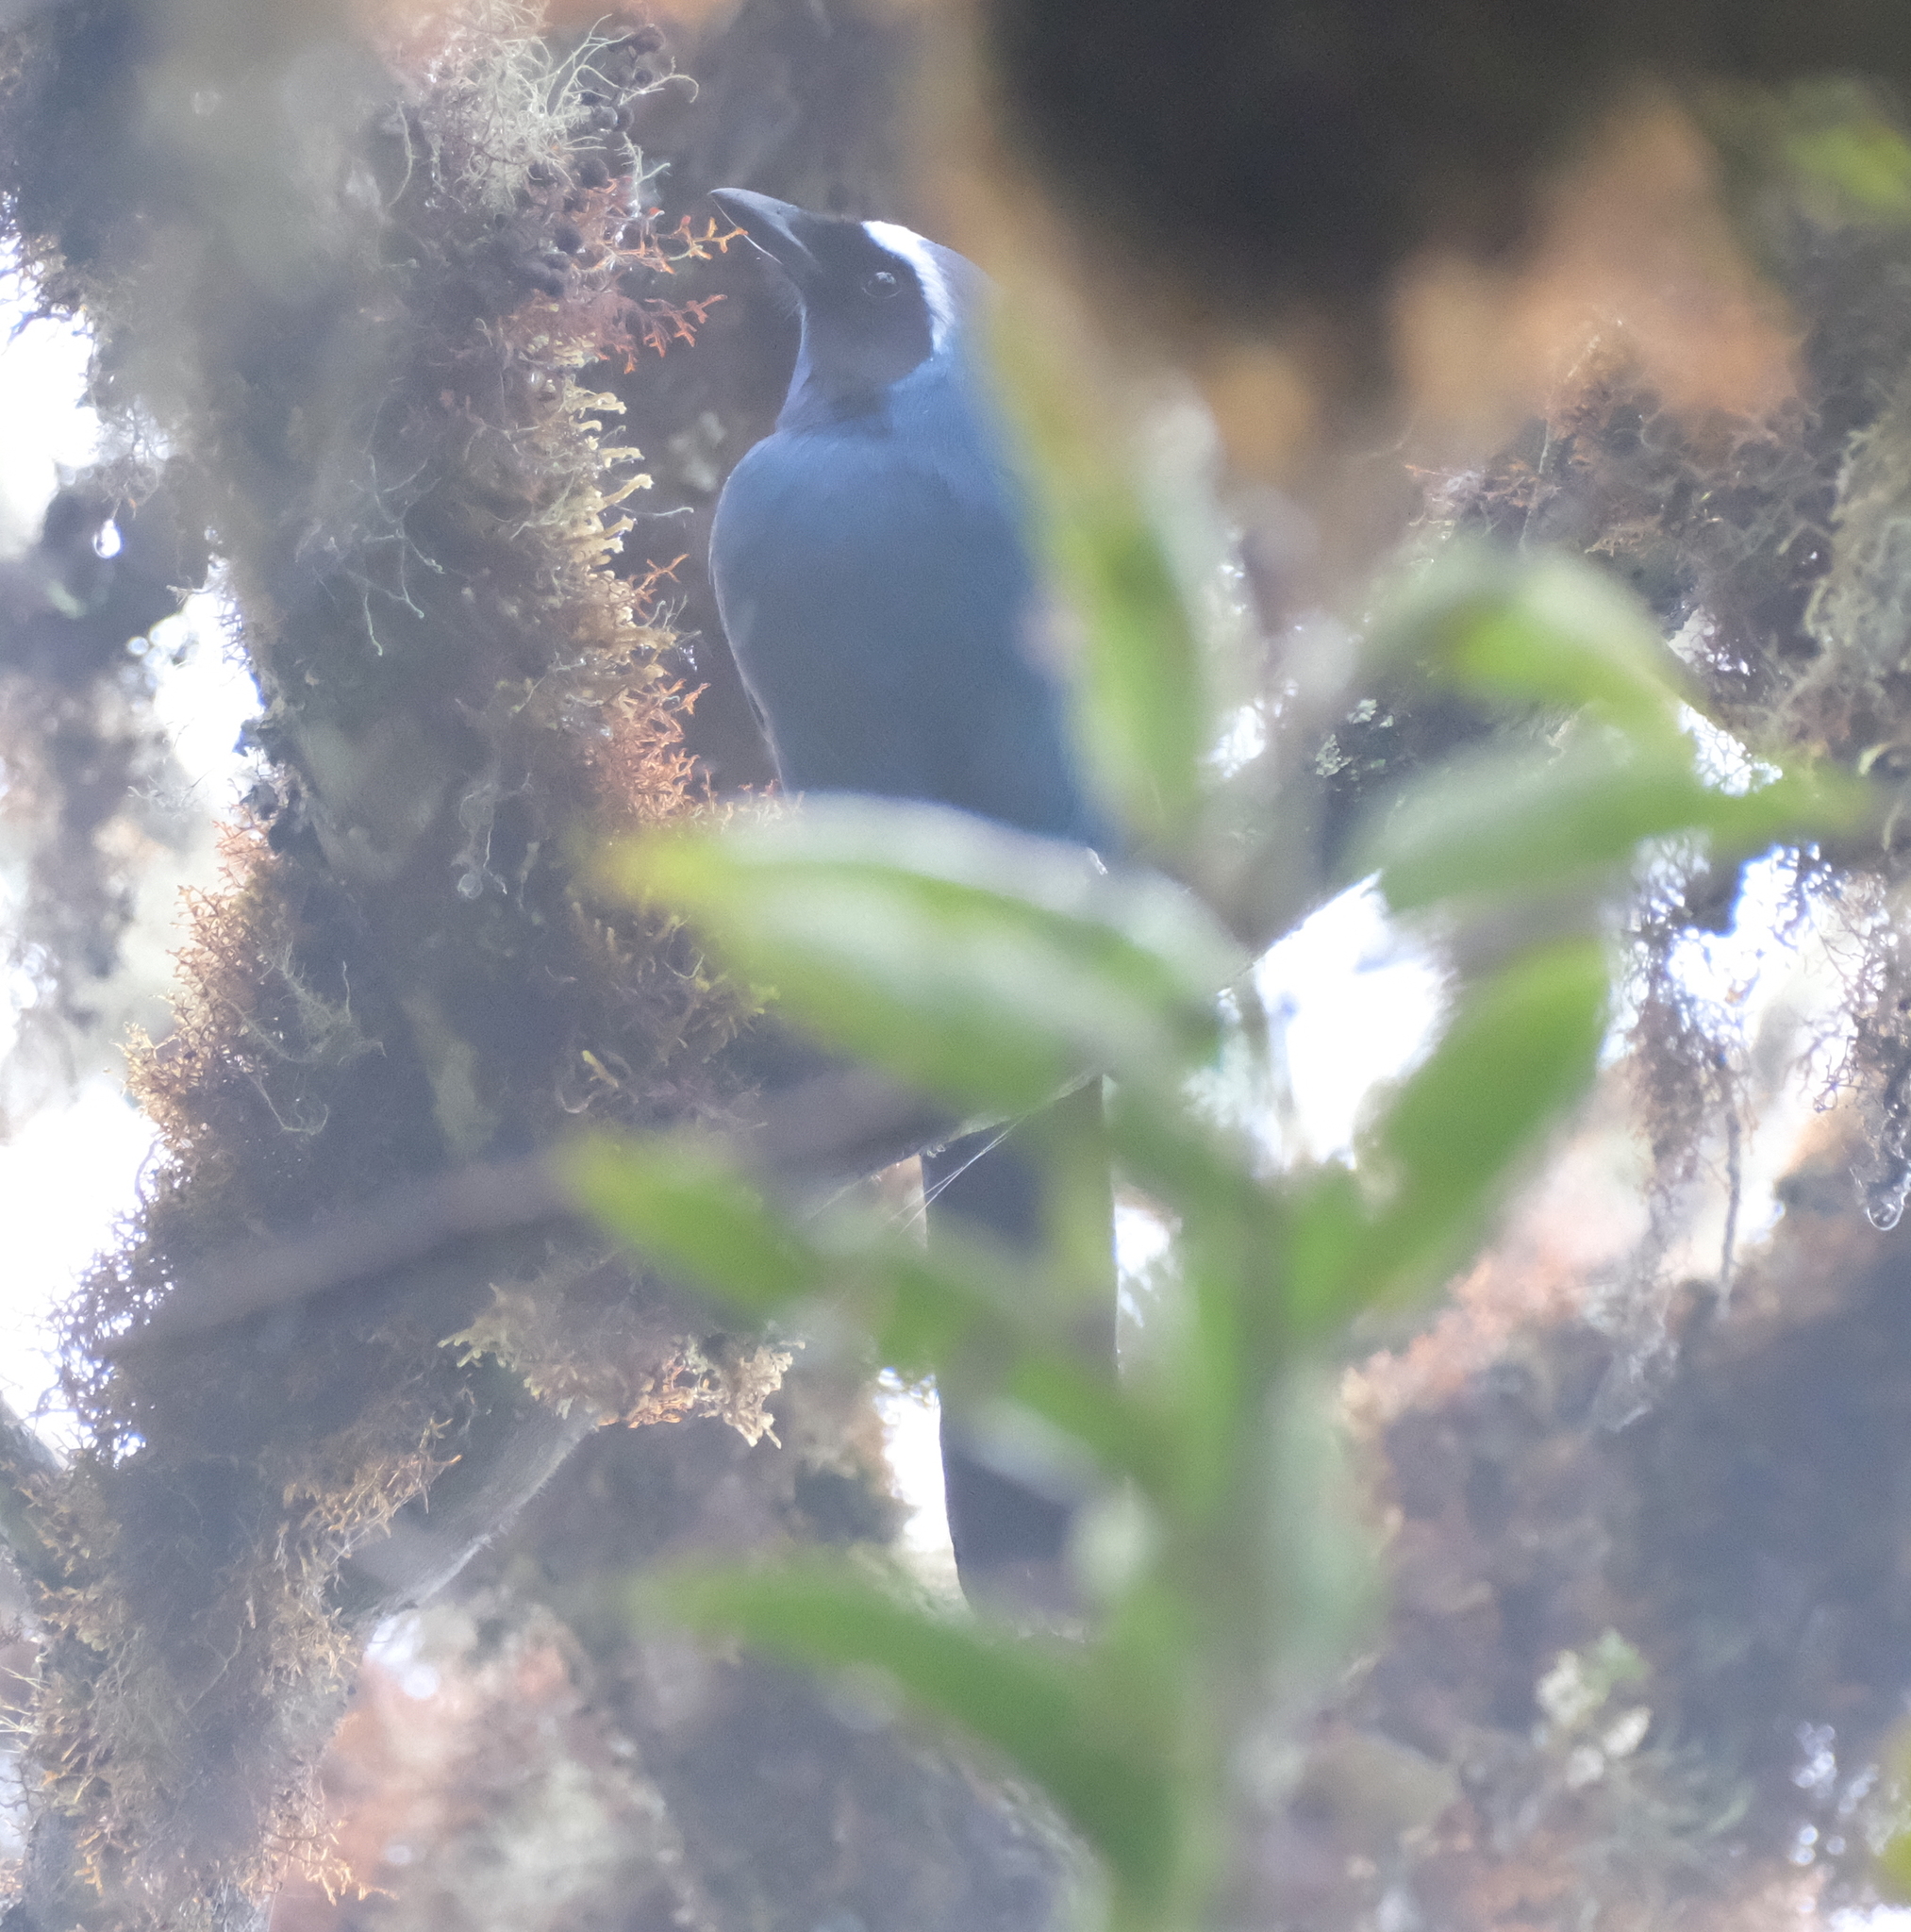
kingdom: Animalia
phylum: Chordata
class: Aves
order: Passeriformes
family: Corvidae
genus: Cyanolyca
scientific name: Cyanolyca viridicyanus
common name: White-collared jay
